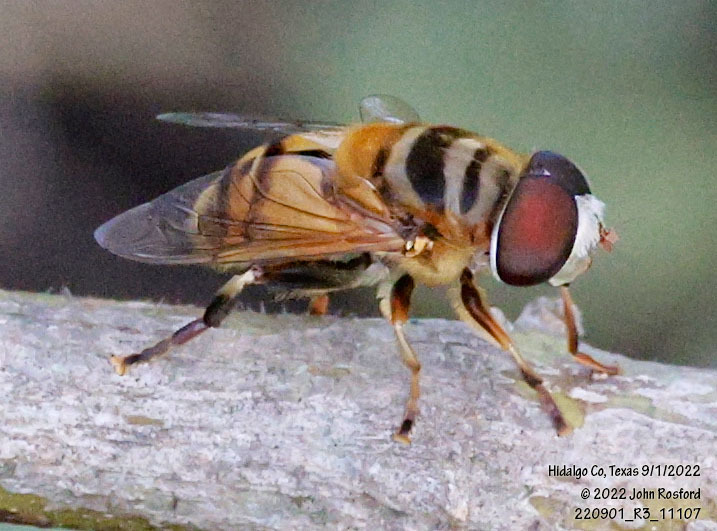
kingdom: Animalia
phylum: Arthropoda
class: Insecta
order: Diptera
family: Syrphidae
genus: Palpada
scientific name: Palpada vinetorum
